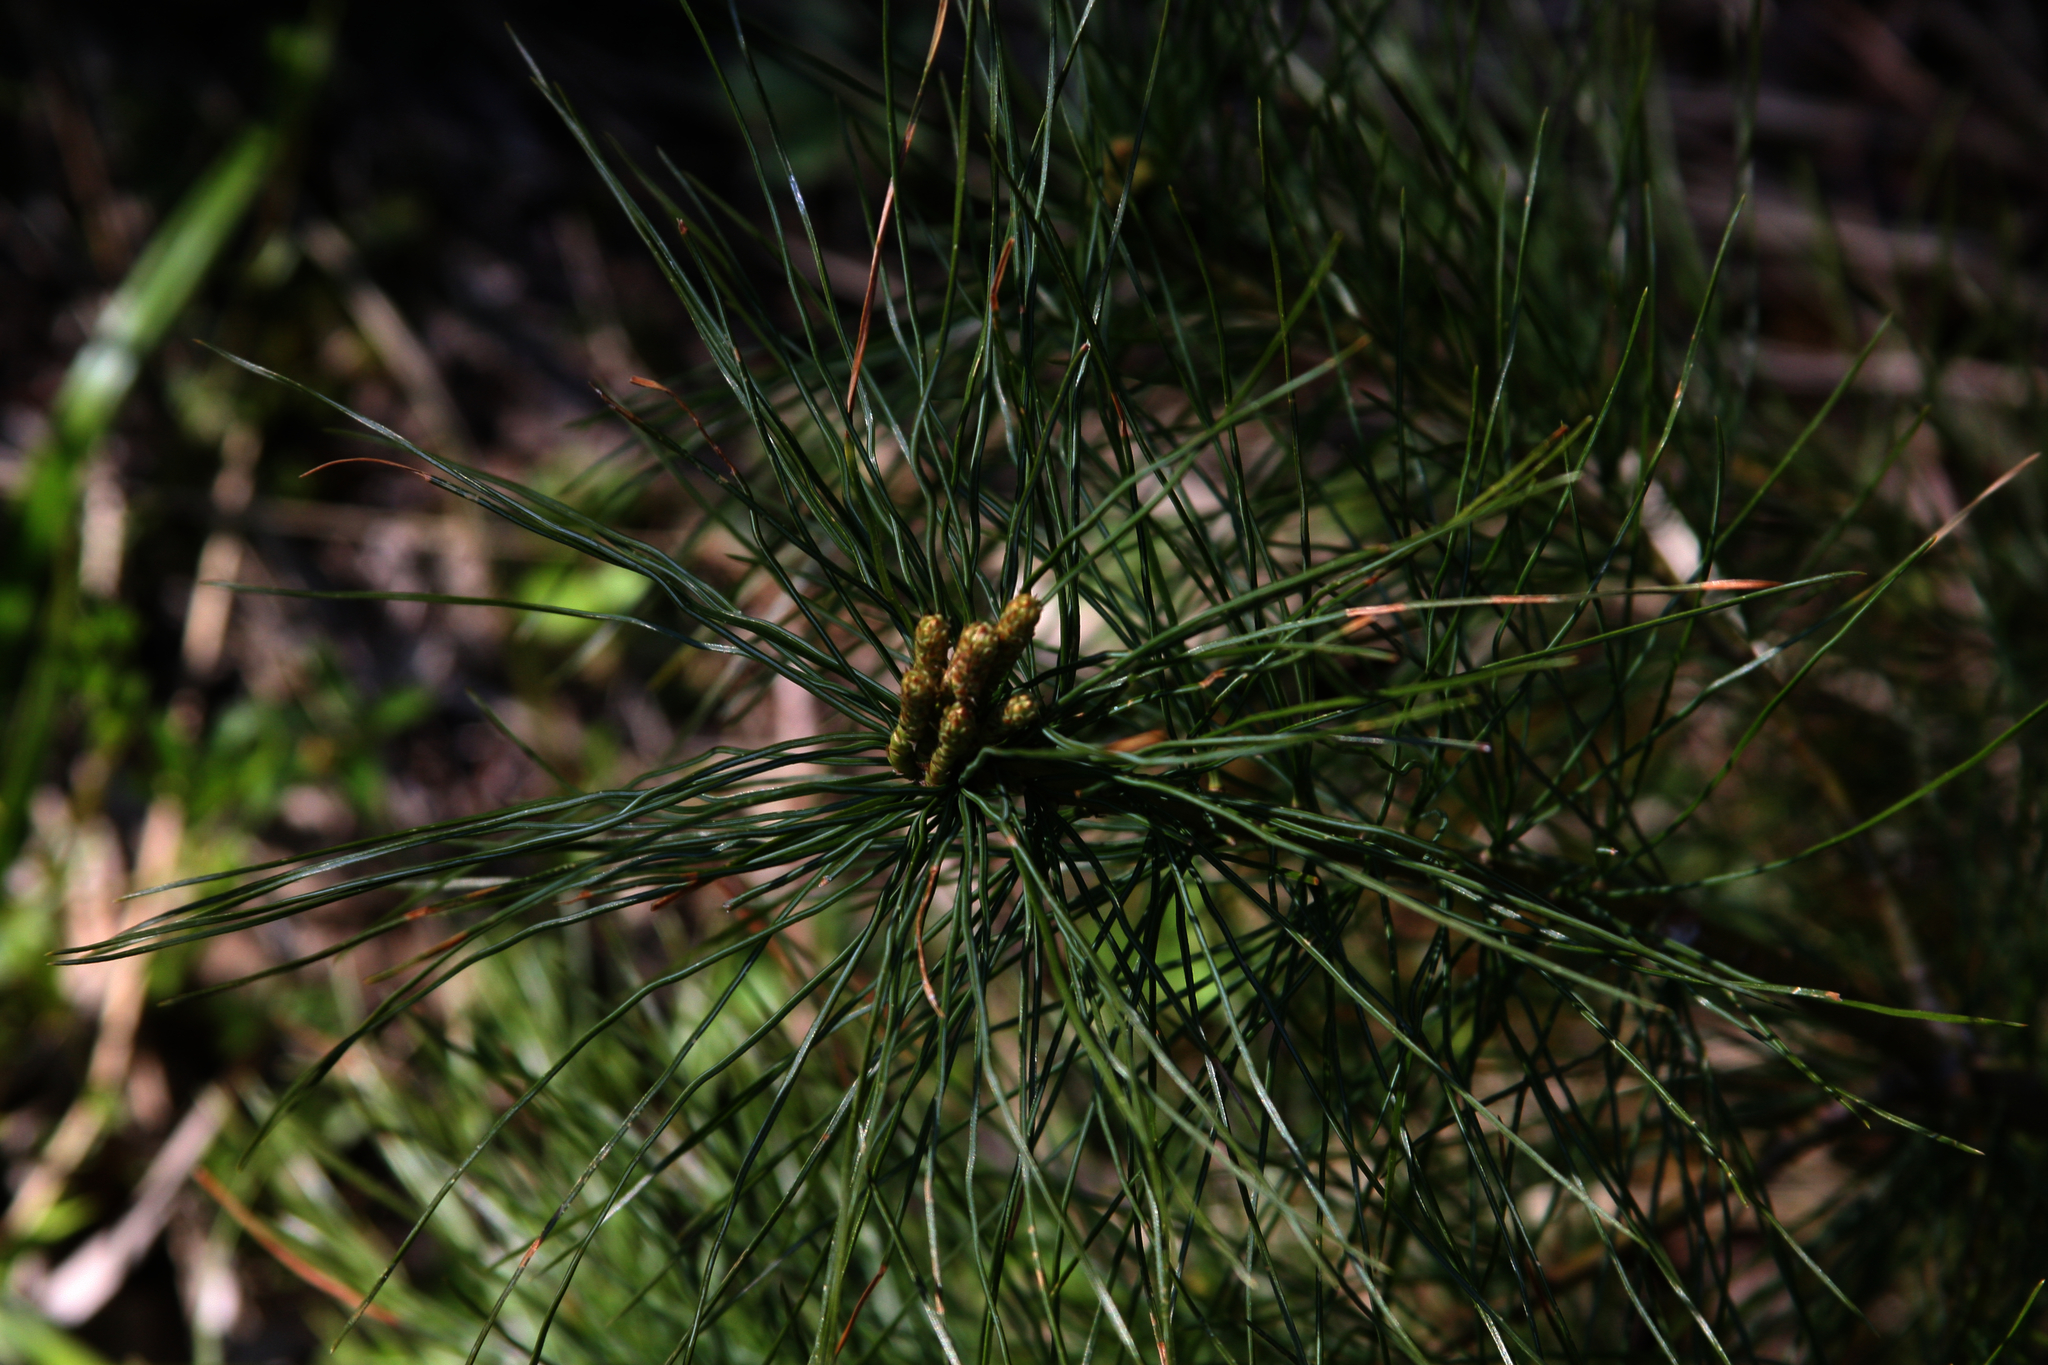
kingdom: Plantae
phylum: Tracheophyta
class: Pinopsida
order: Pinales
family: Pinaceae
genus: Pinus
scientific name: Pinus strobus
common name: Weymouth pine
